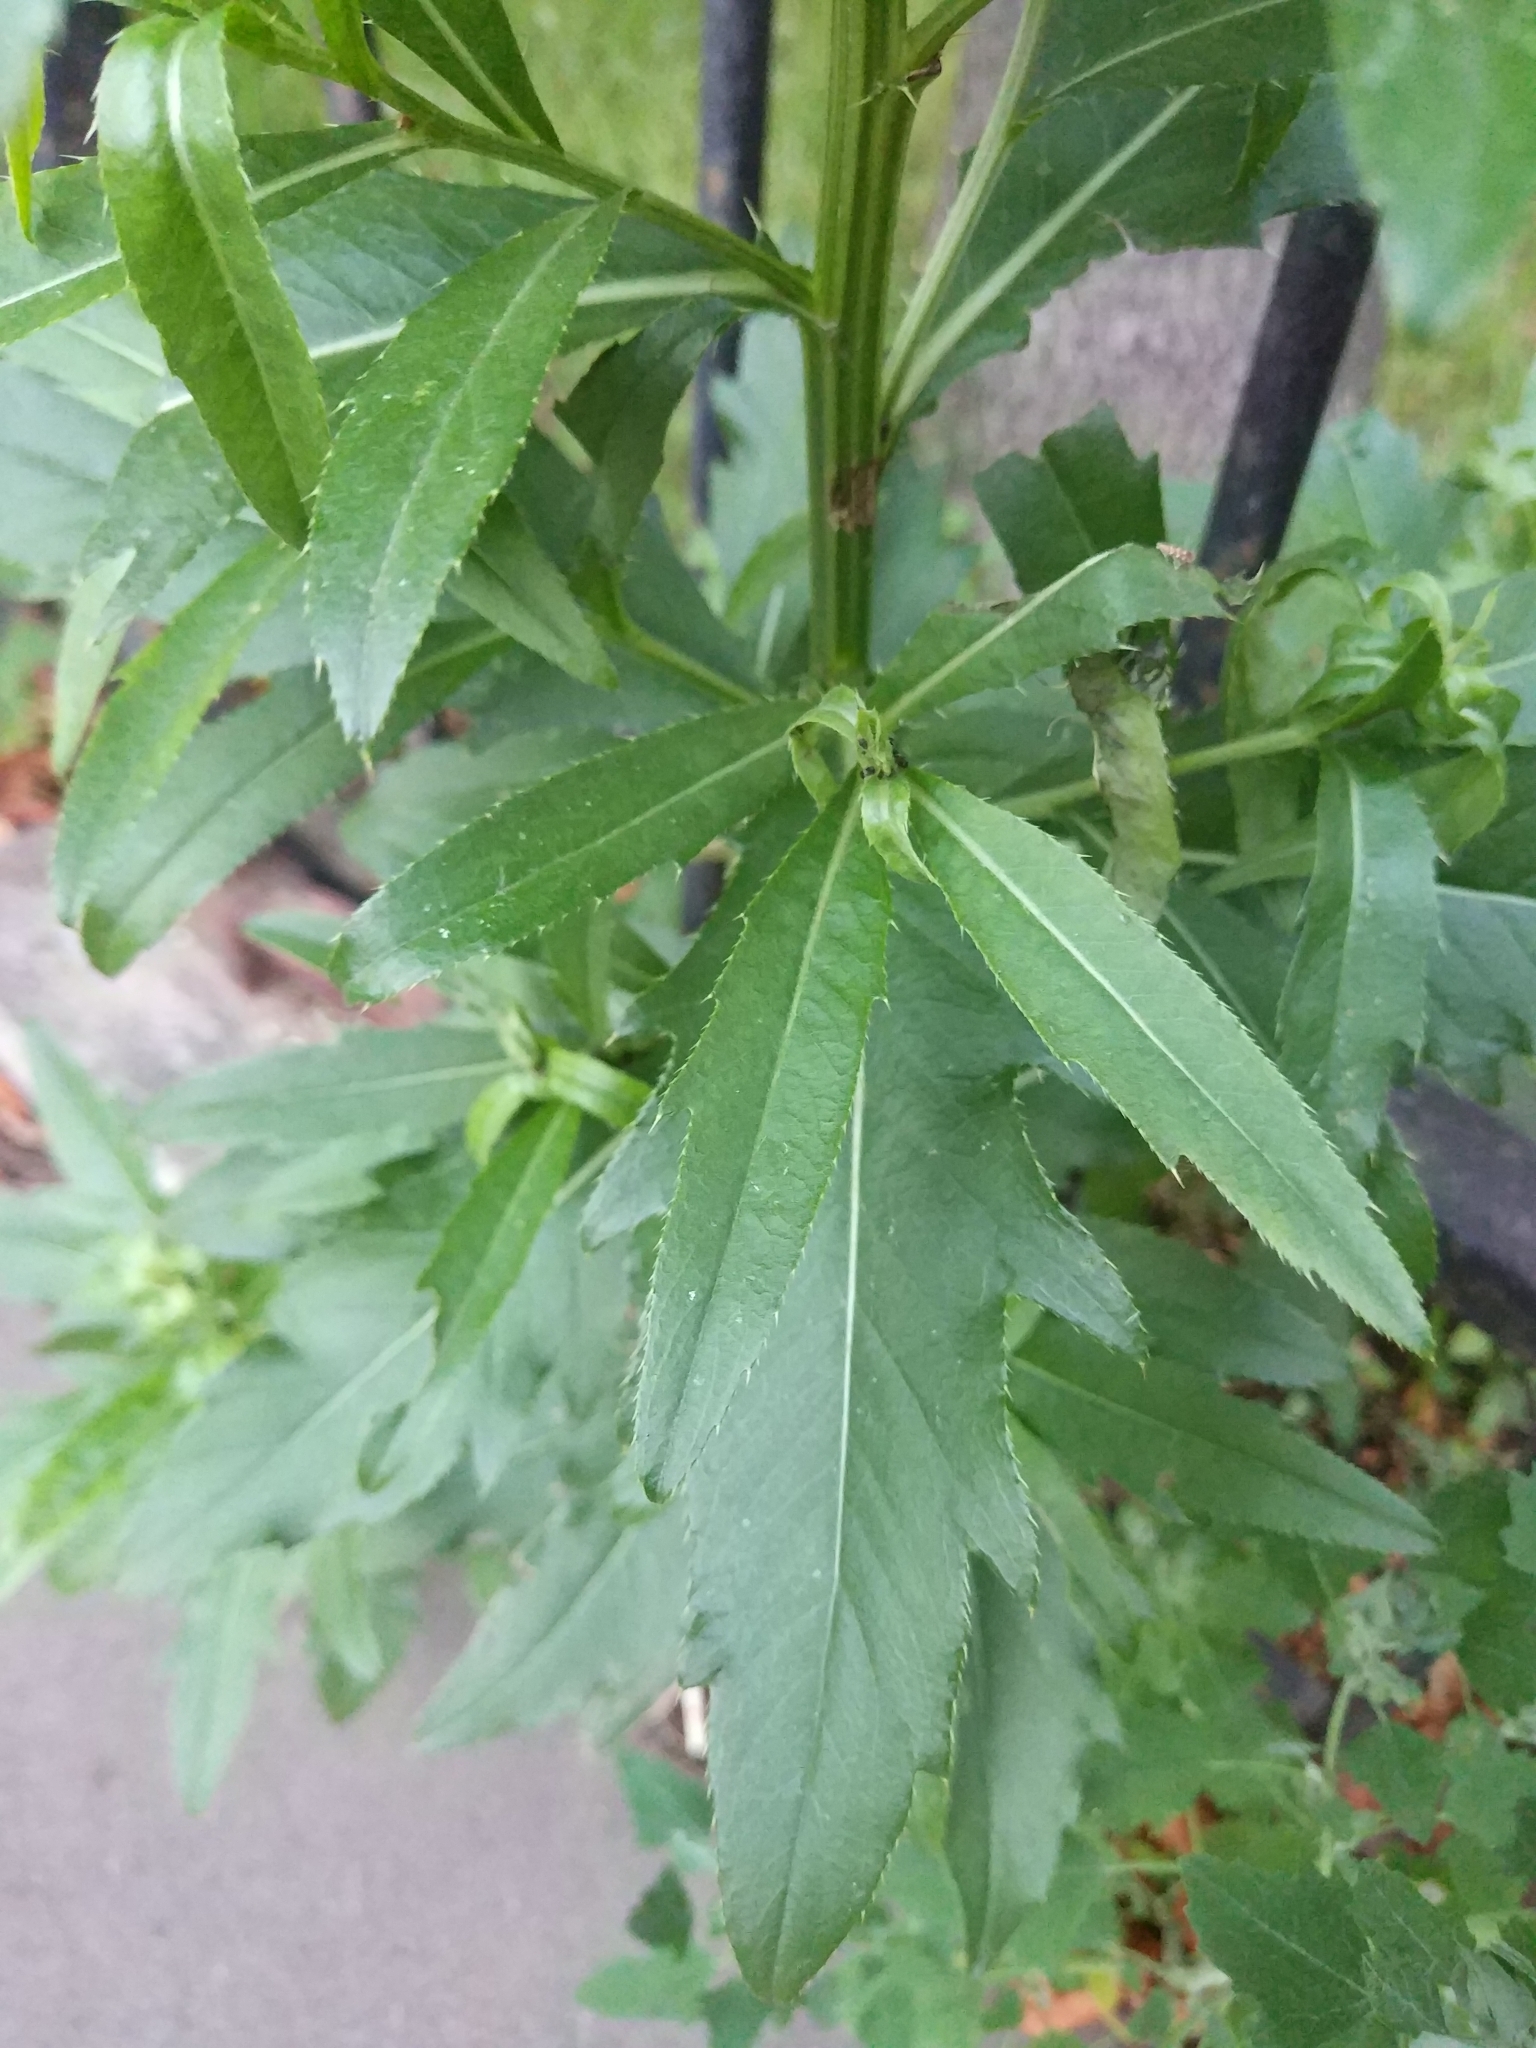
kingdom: Plantae
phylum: Tracheophyta
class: Magnoliopsida
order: Asterales
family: Asteraceae
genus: Cirsium
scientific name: Cirsium arvense
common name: Creeping thistle
